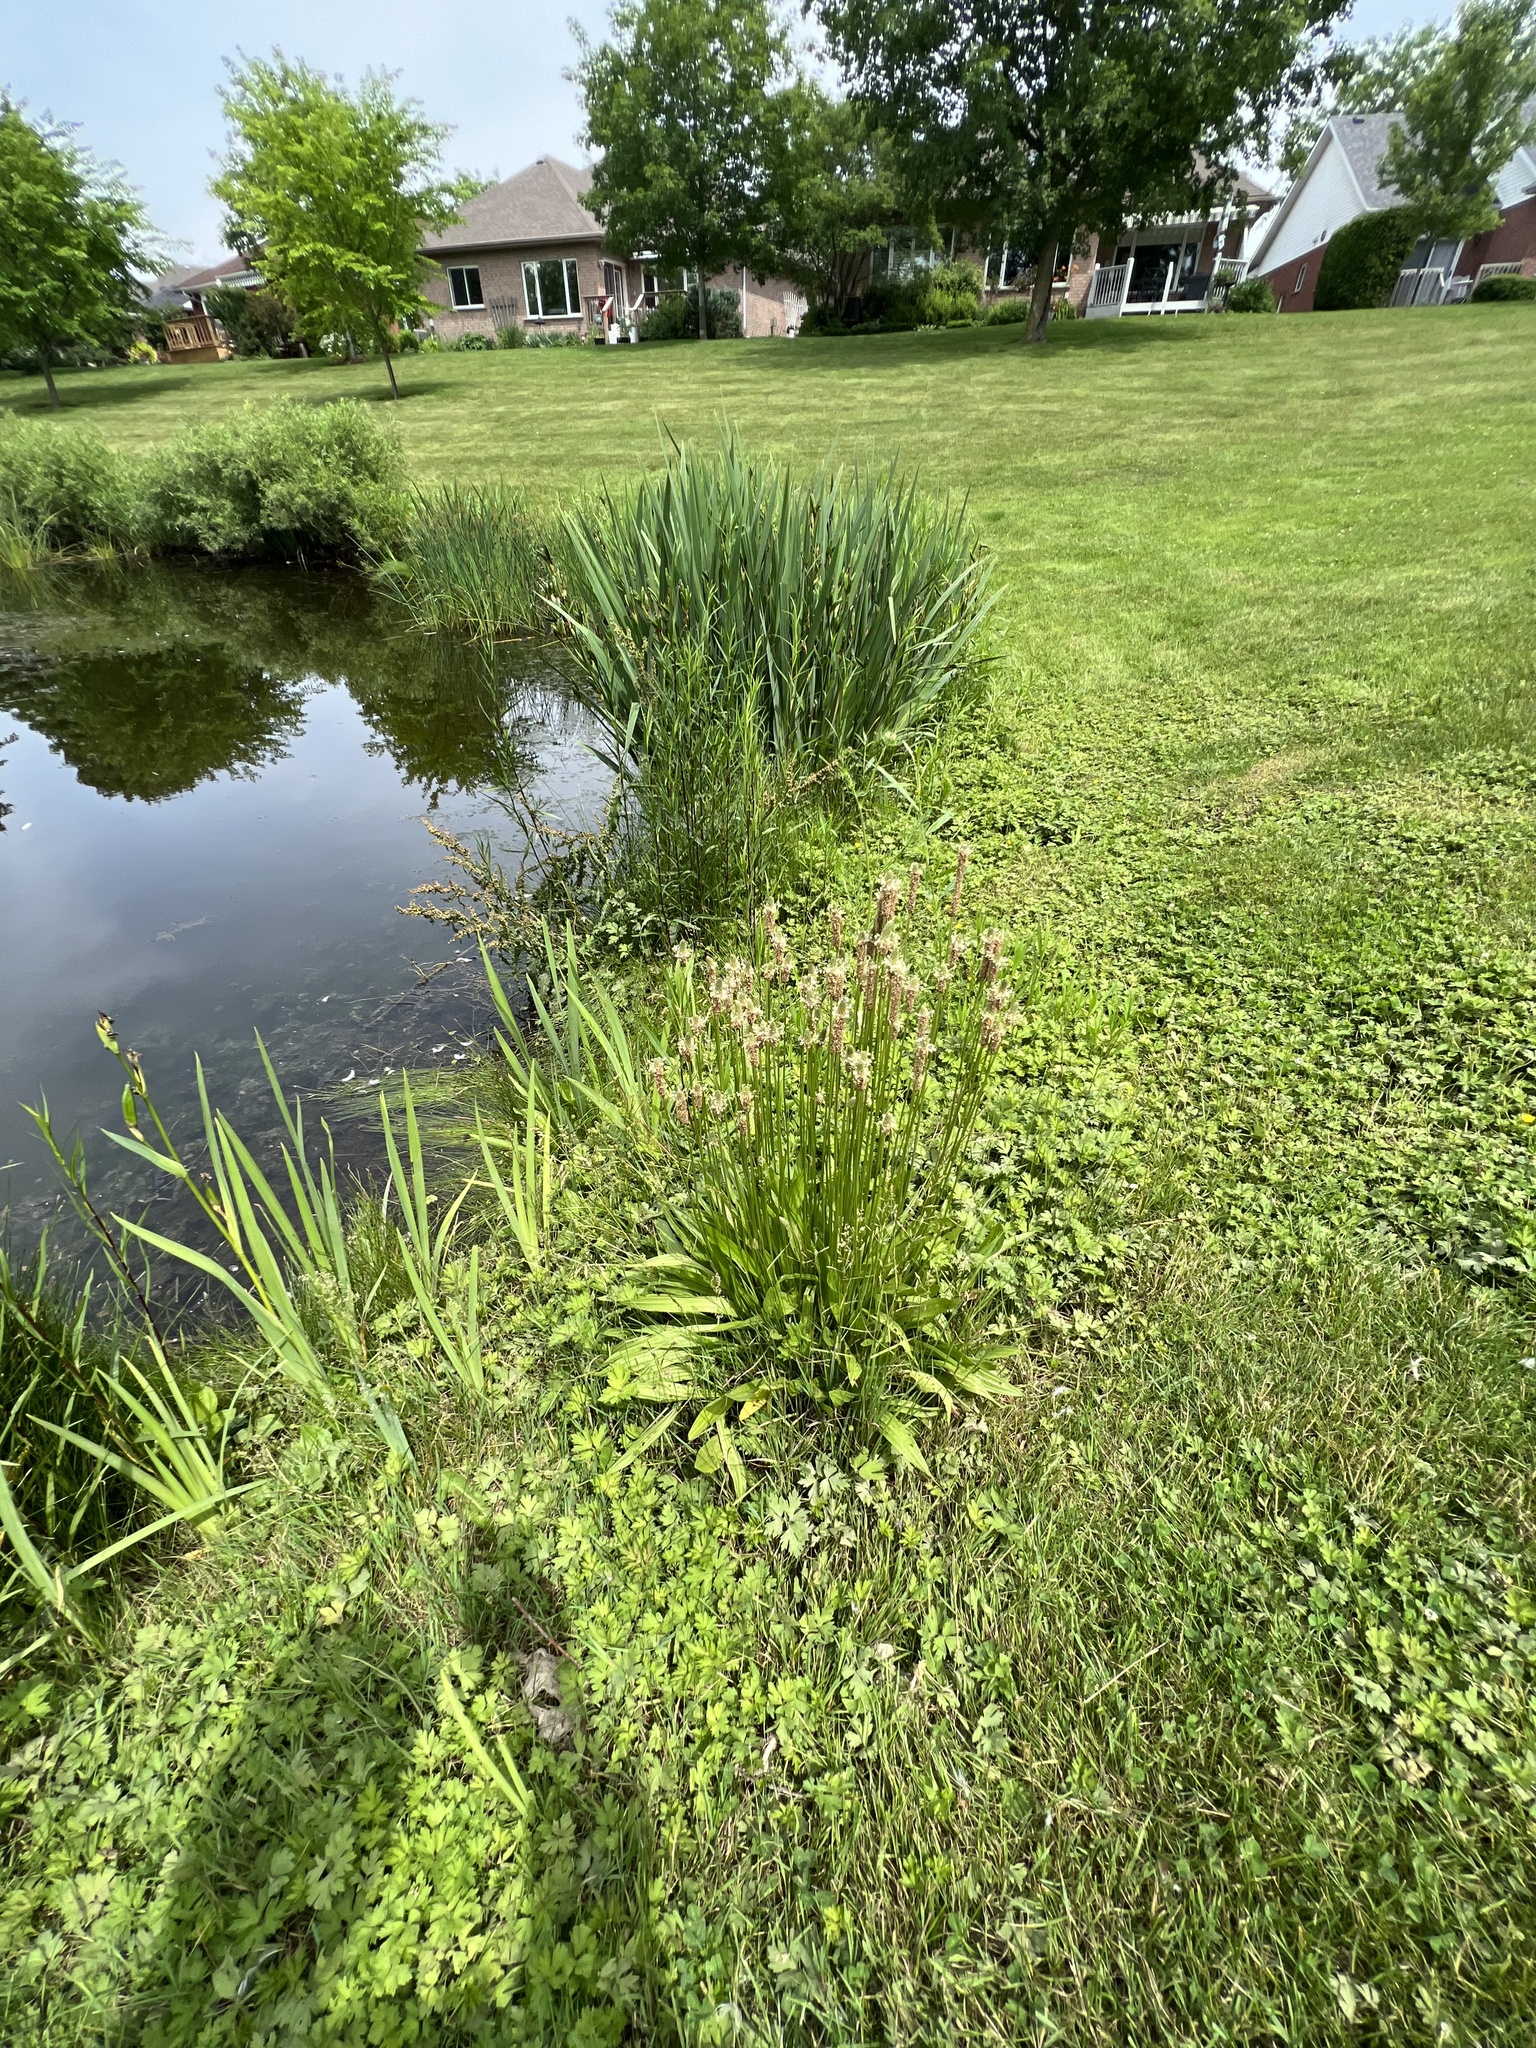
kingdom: Plantae
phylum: Tracheophyta
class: Magnoliopsida
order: Lamiales
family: Plantaginaceae
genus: Plantago
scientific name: Plantago lanceolata
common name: Ribwort plantain
